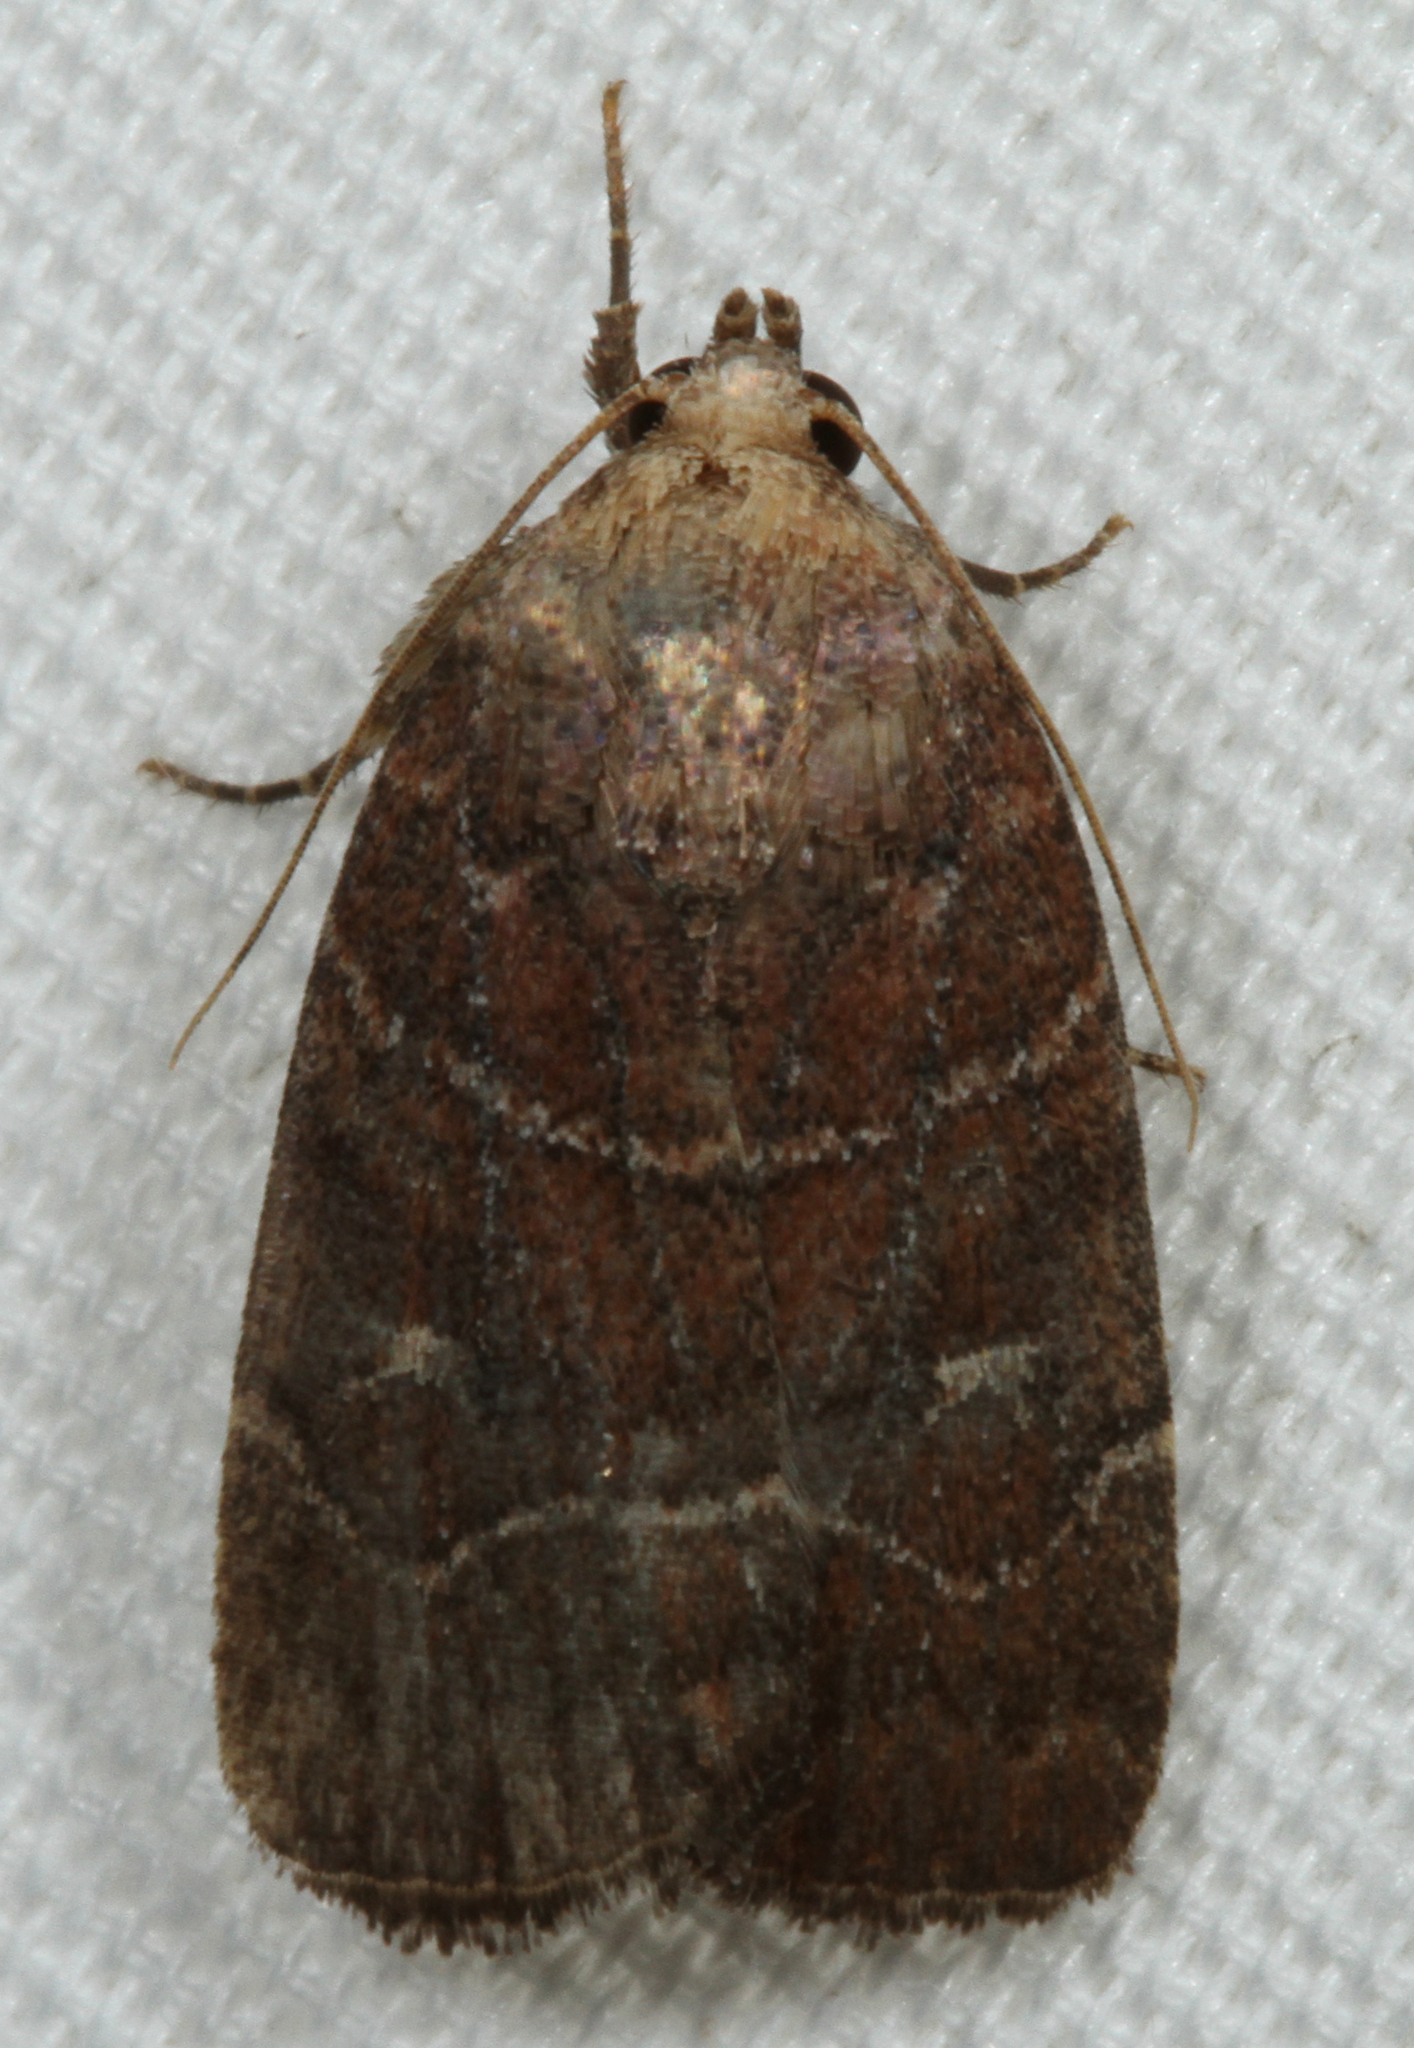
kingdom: Animalia
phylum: Arthropoda
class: Insecta
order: Lepidoptera
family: Noctuidae
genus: Elaphria
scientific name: Elaphria grata
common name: Grateful midget moth
